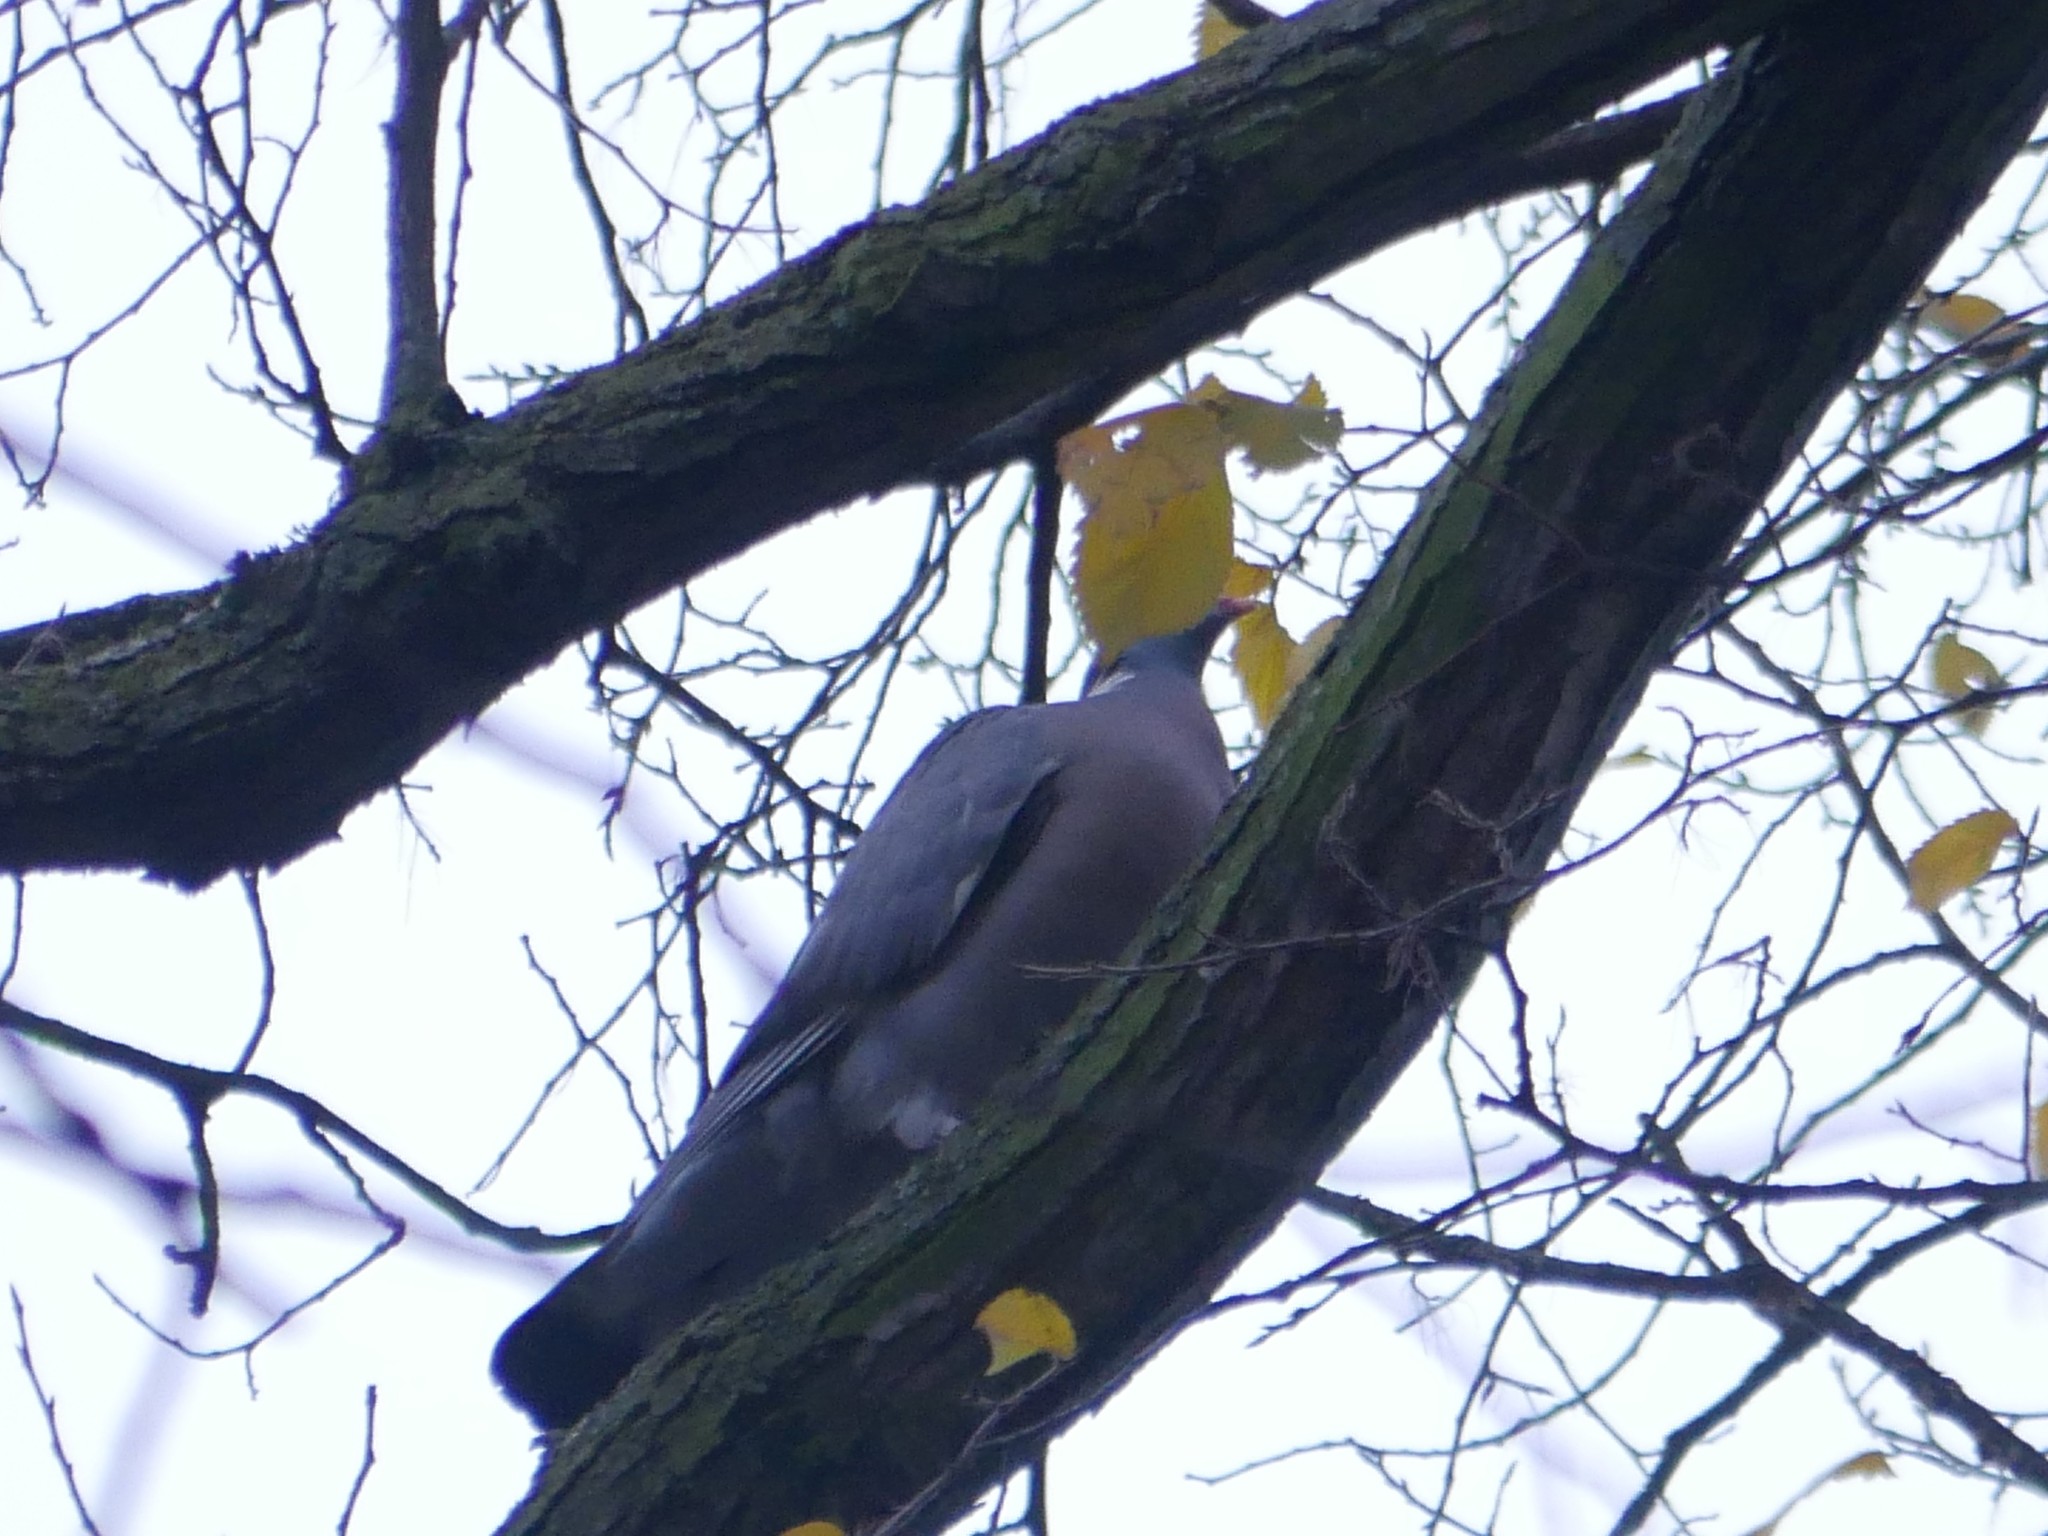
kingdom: Animalia
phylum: Chordata
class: Aves
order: Columbiformes
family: Columbidae
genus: Columba
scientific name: Columba palumbus
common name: Common wood pigeon
